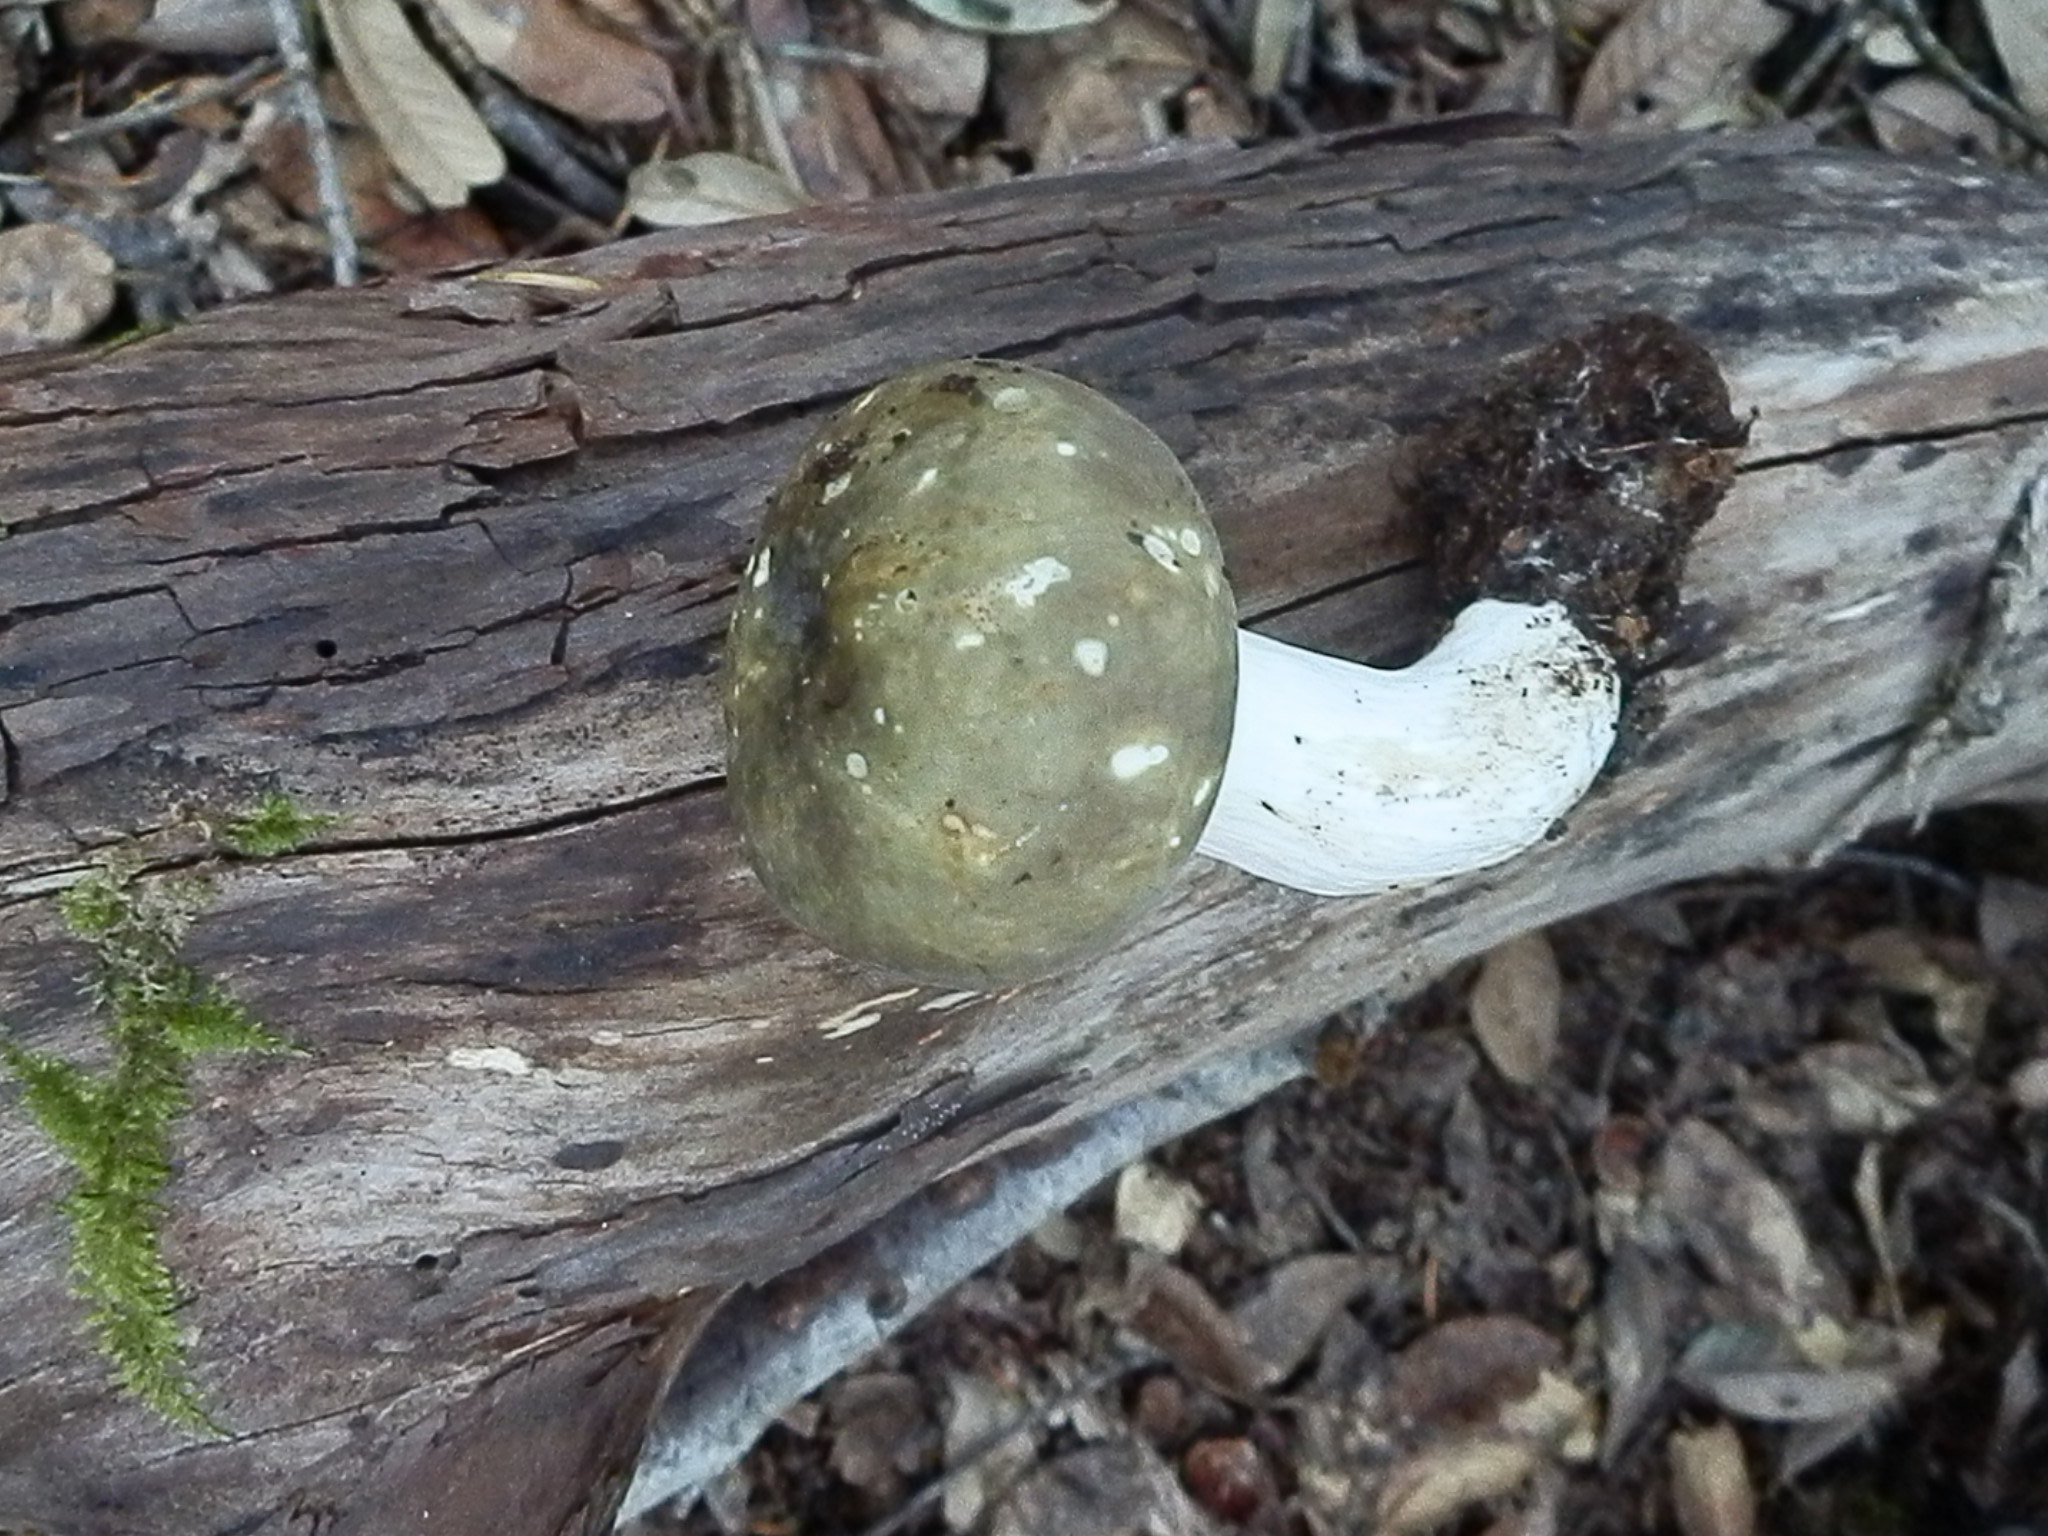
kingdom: Fungi
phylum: Basidiomycota
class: Agaricomycetes
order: Russulales
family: Russulaceae
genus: Russula
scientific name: Russula olivacea
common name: Olive brittlegill
